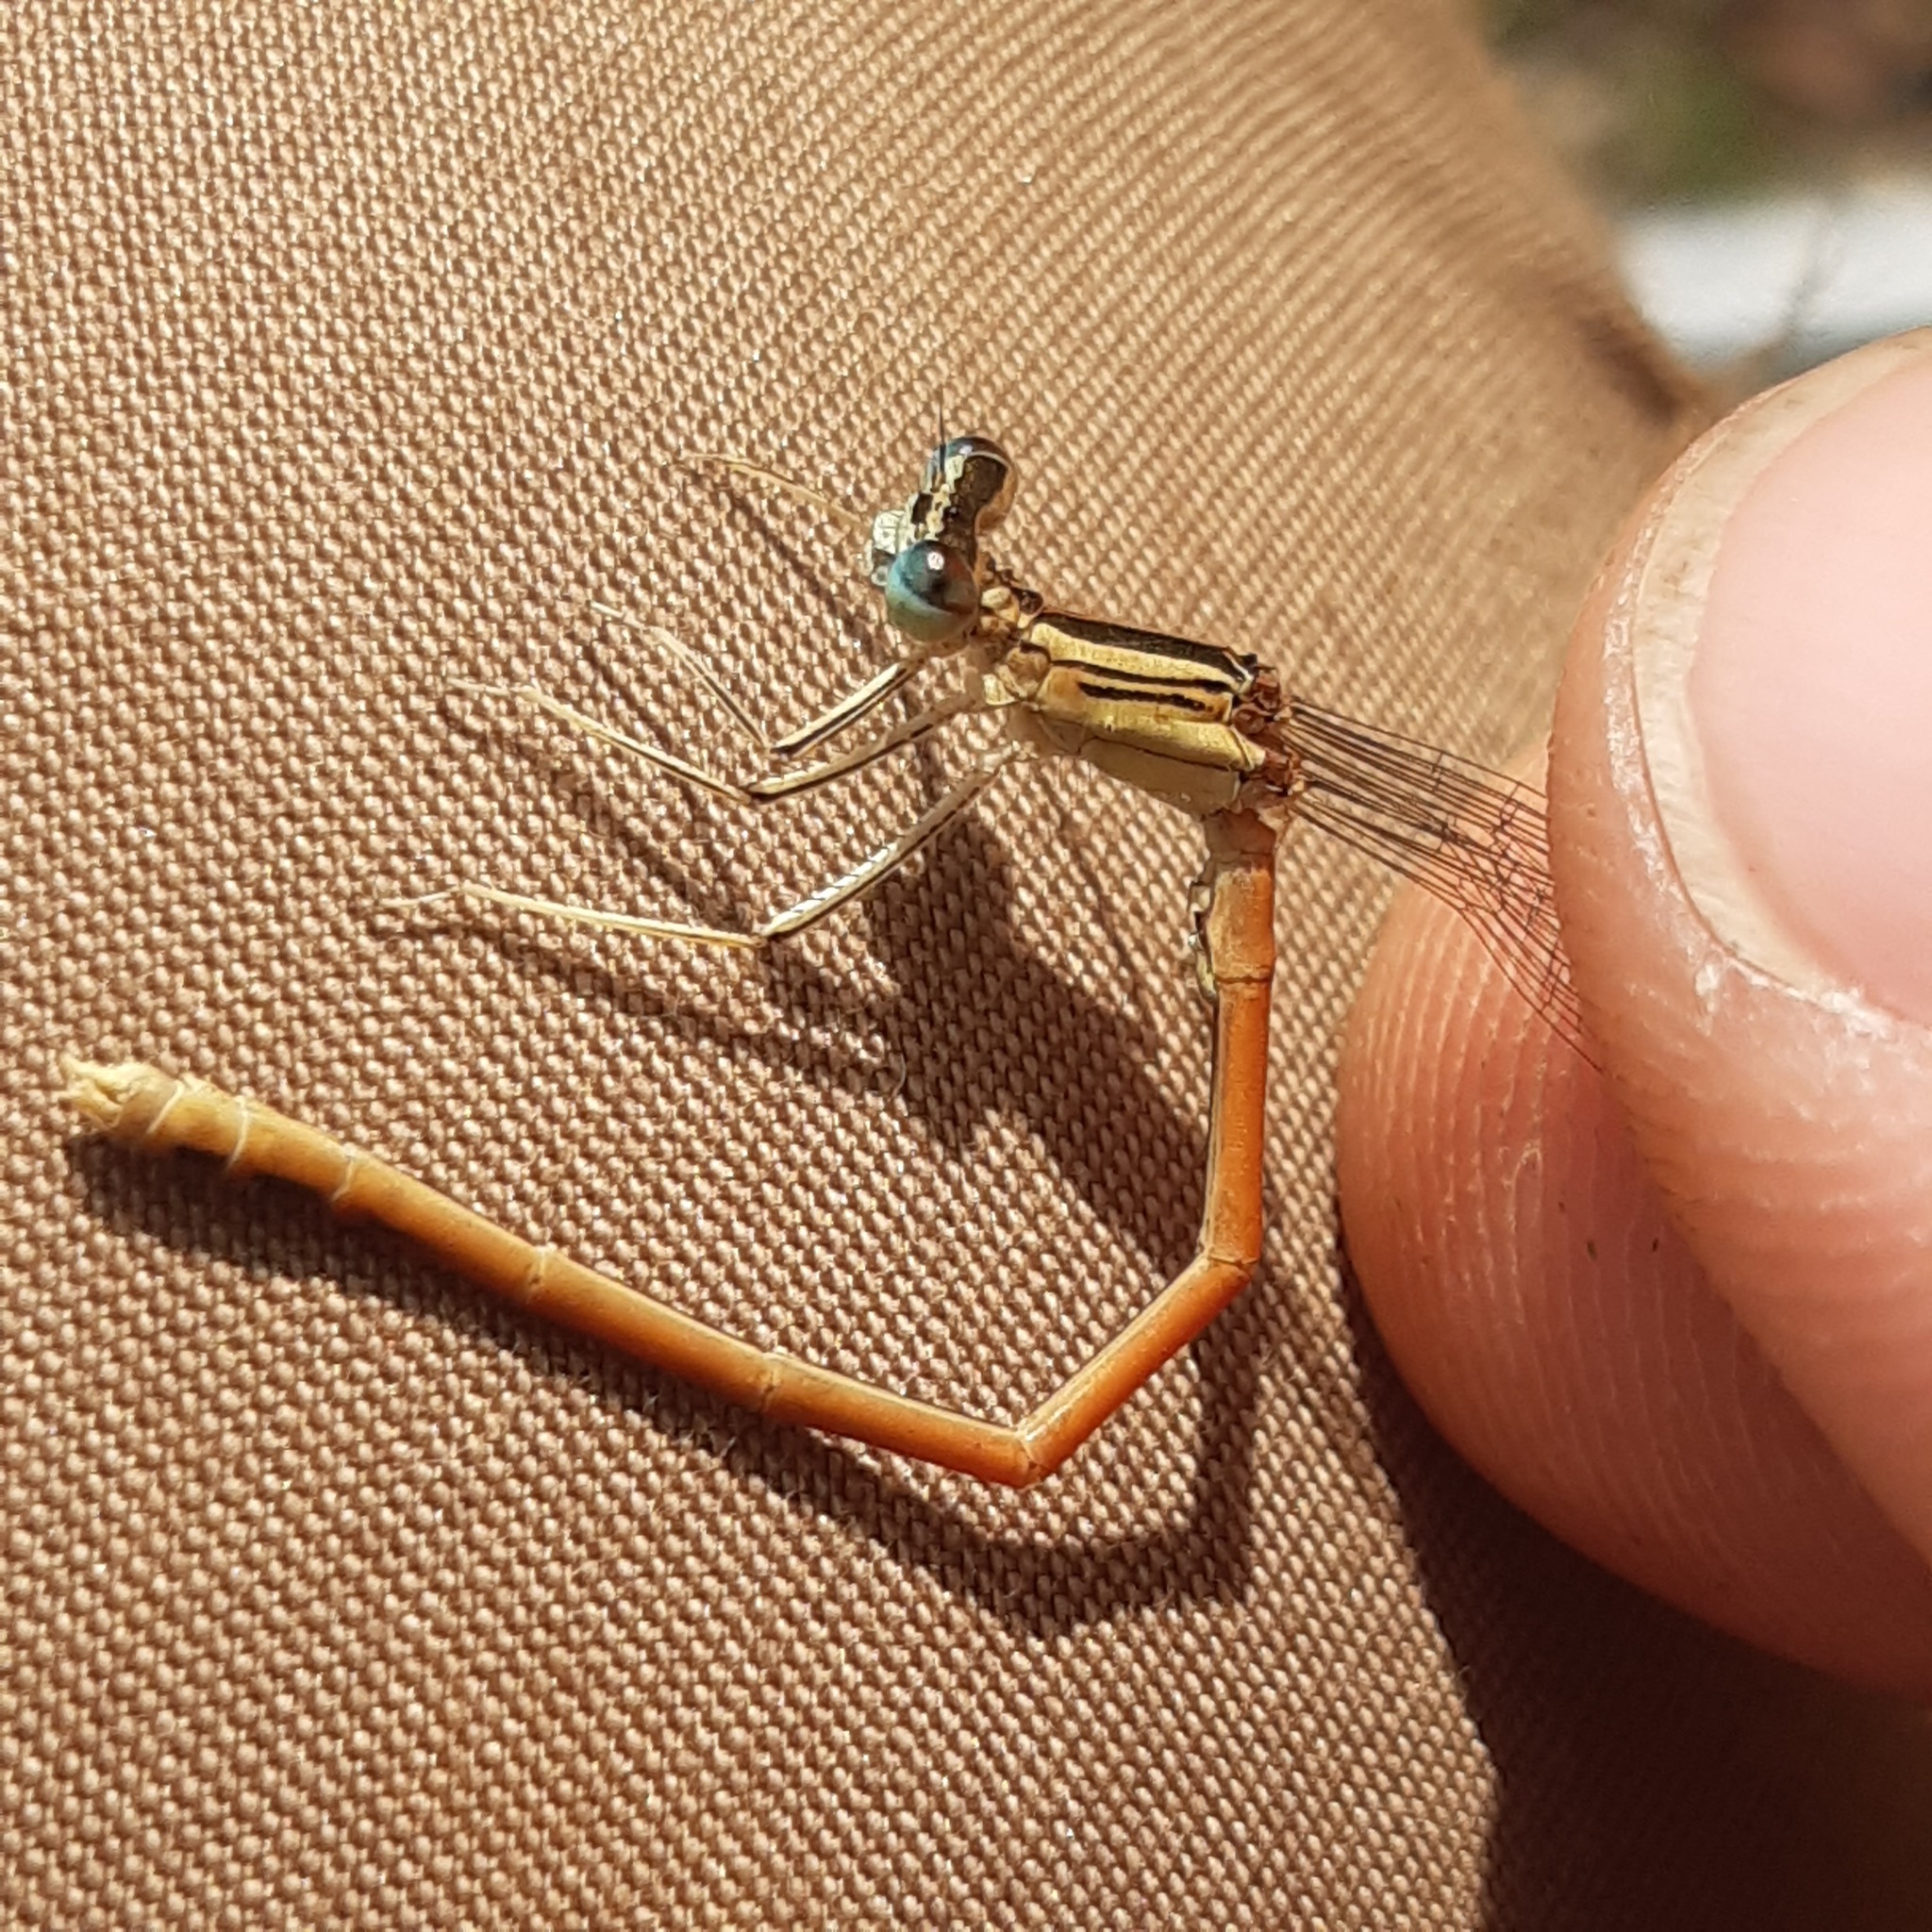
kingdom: Animalia
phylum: Arthropoda
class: Insecta
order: Odonata
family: Platycnemididae
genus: Platycnemis
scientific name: Platycnemis acutipennis
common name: Orange featherleg
